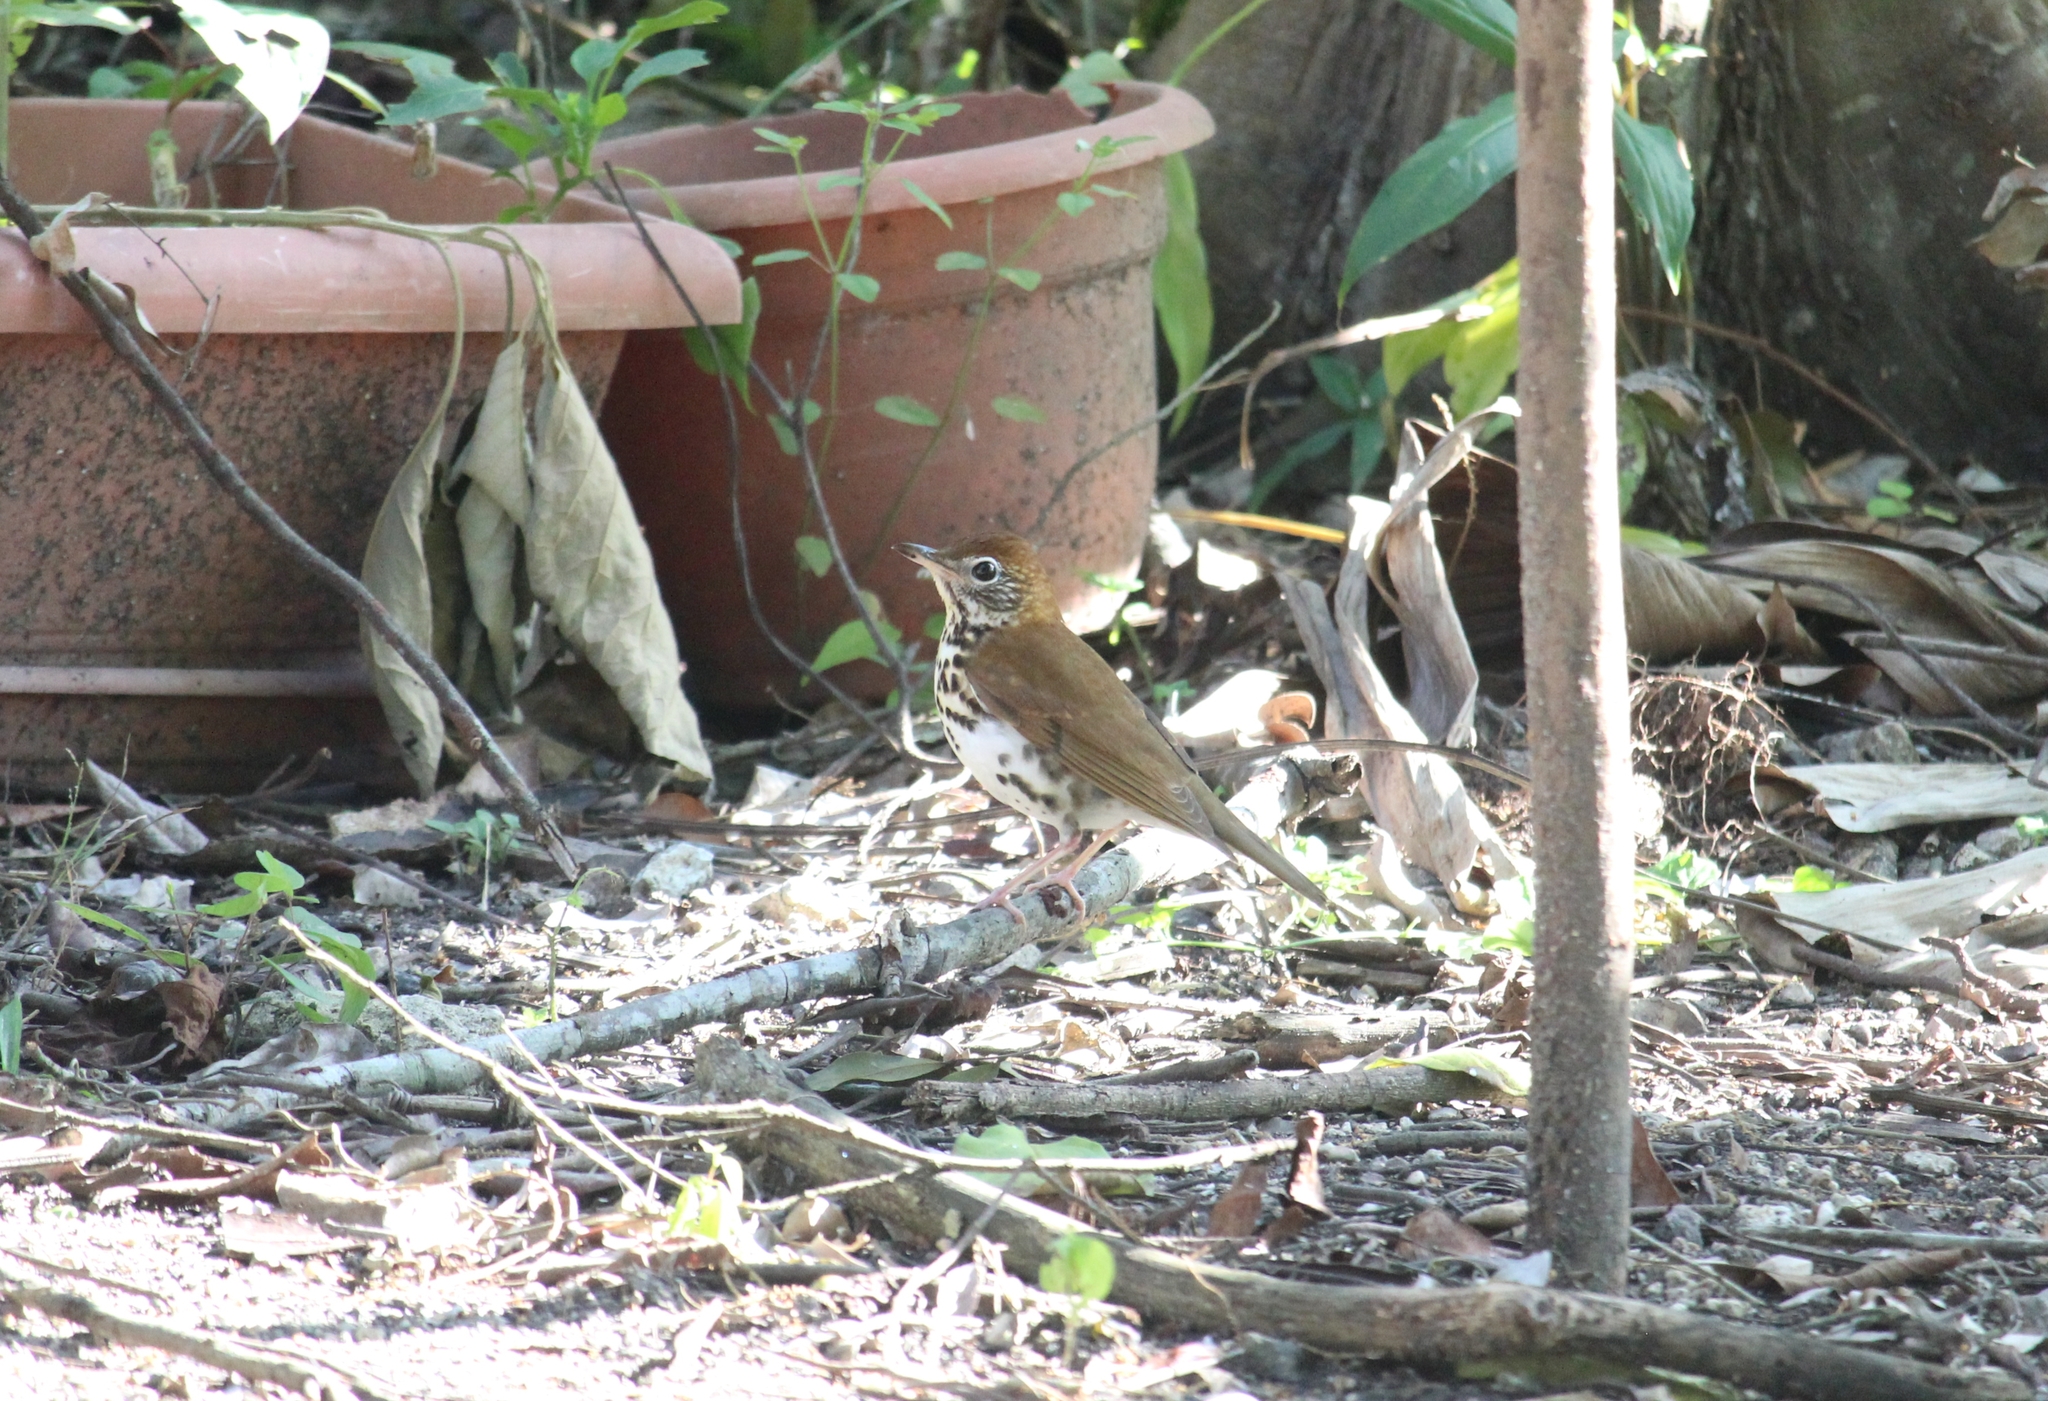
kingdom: Animalia
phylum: Chordata
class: Aves
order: Passeriformes
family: Turdidae
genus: Hylocichla
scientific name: Hylocichla mustelina
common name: Wood thrush
